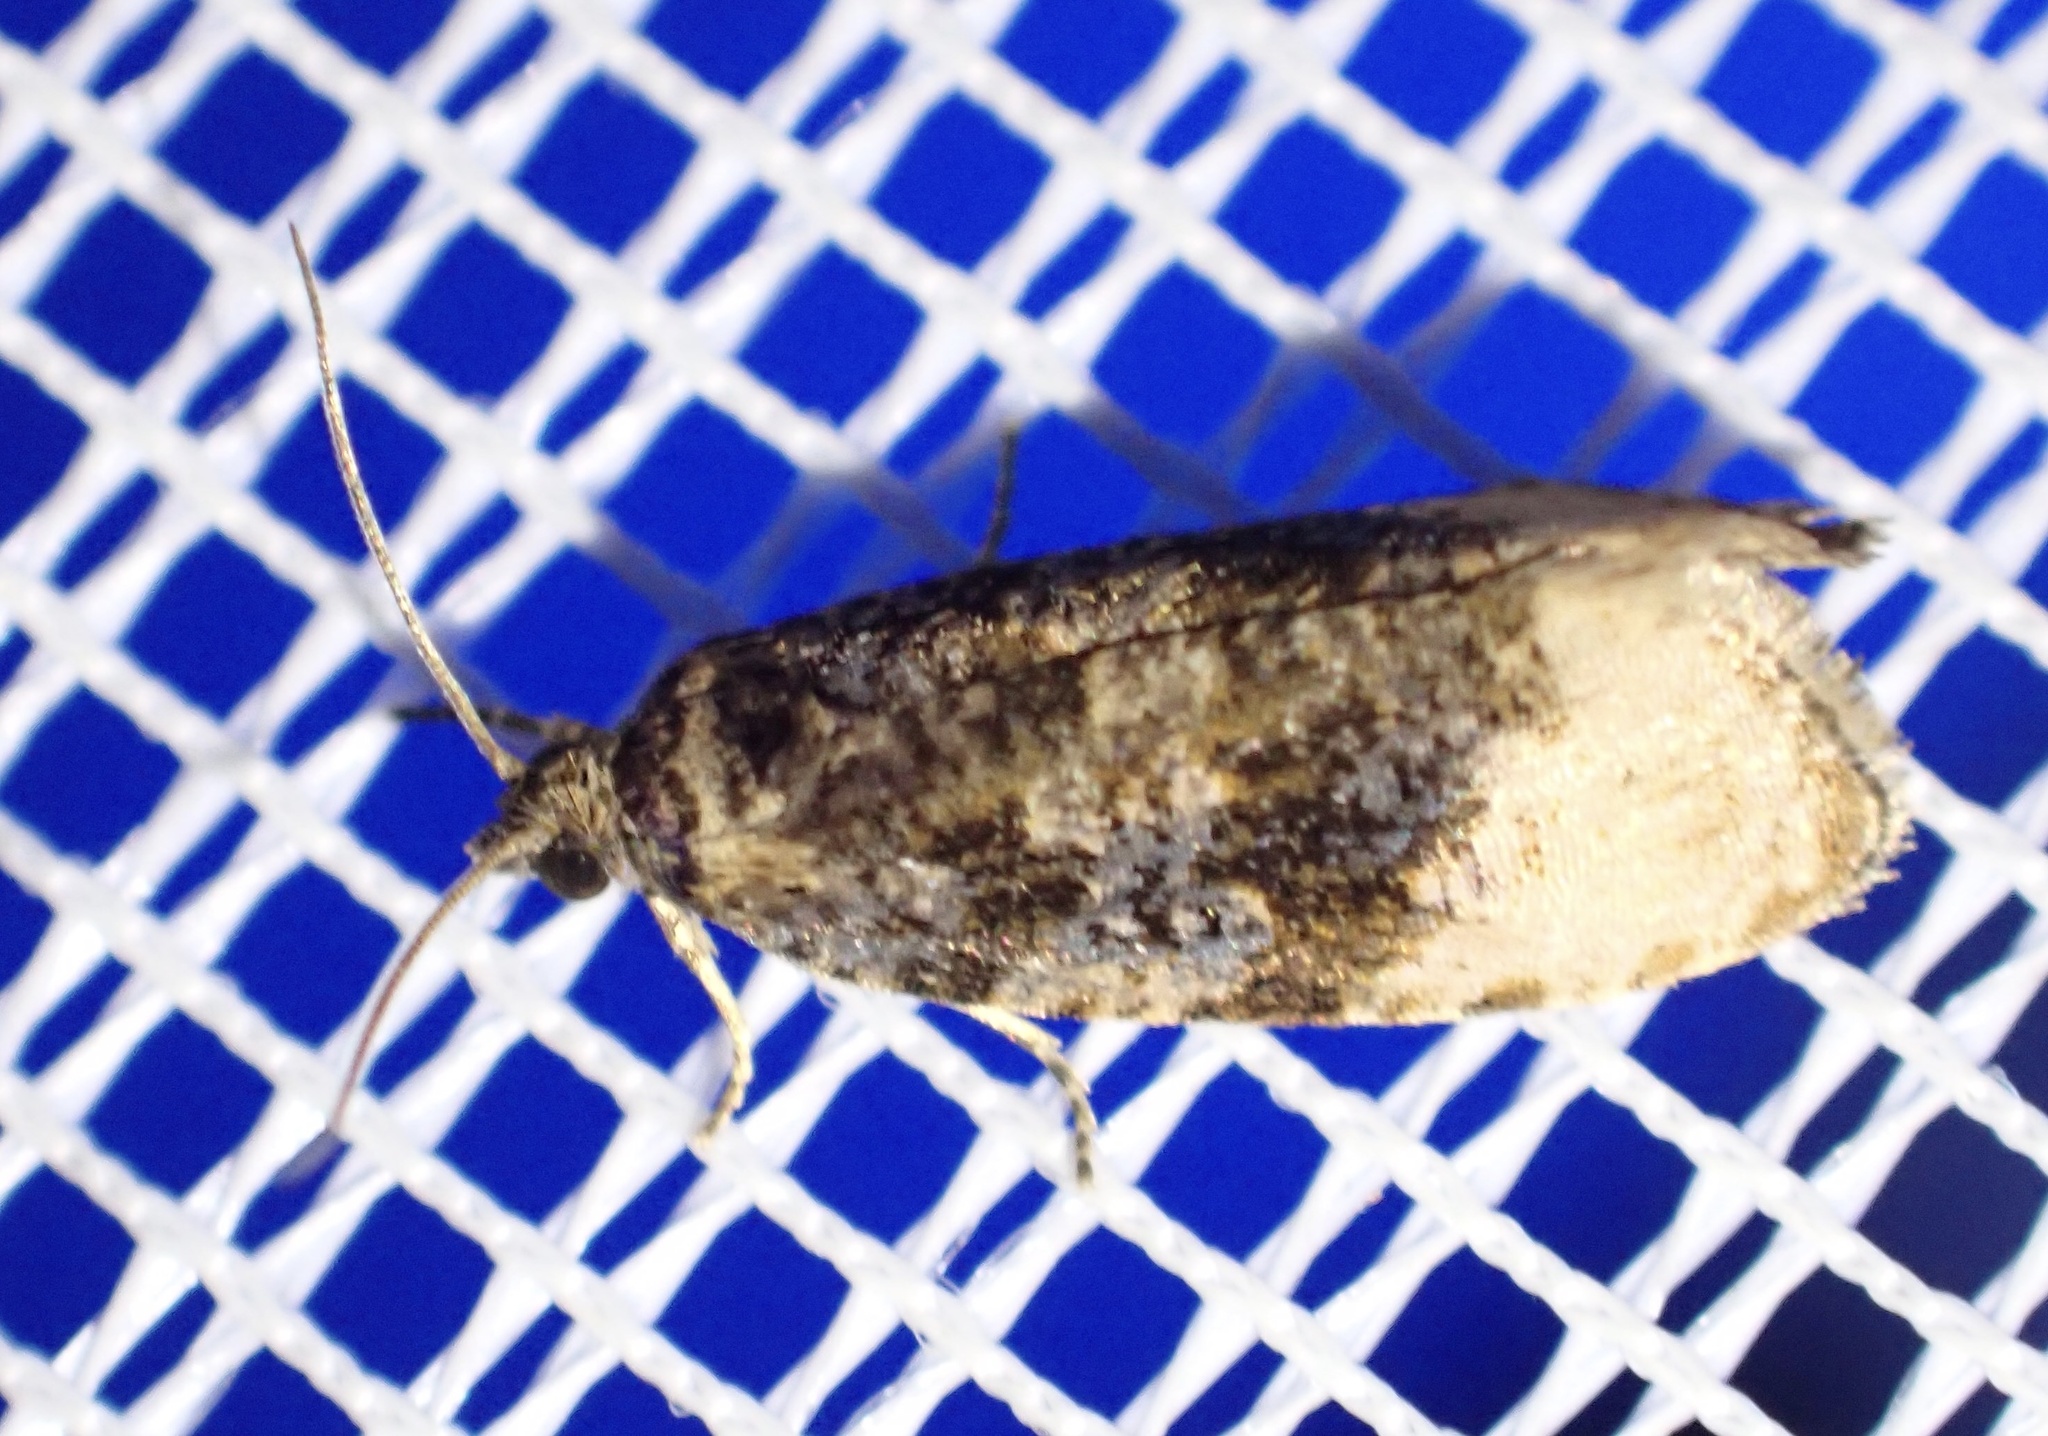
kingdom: Animalia
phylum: Arthropoda
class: Insecta
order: Lepidoptera
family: Tortricidae
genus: Hedya
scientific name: Hedya ochroleucana
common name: Buff-tipped marble
